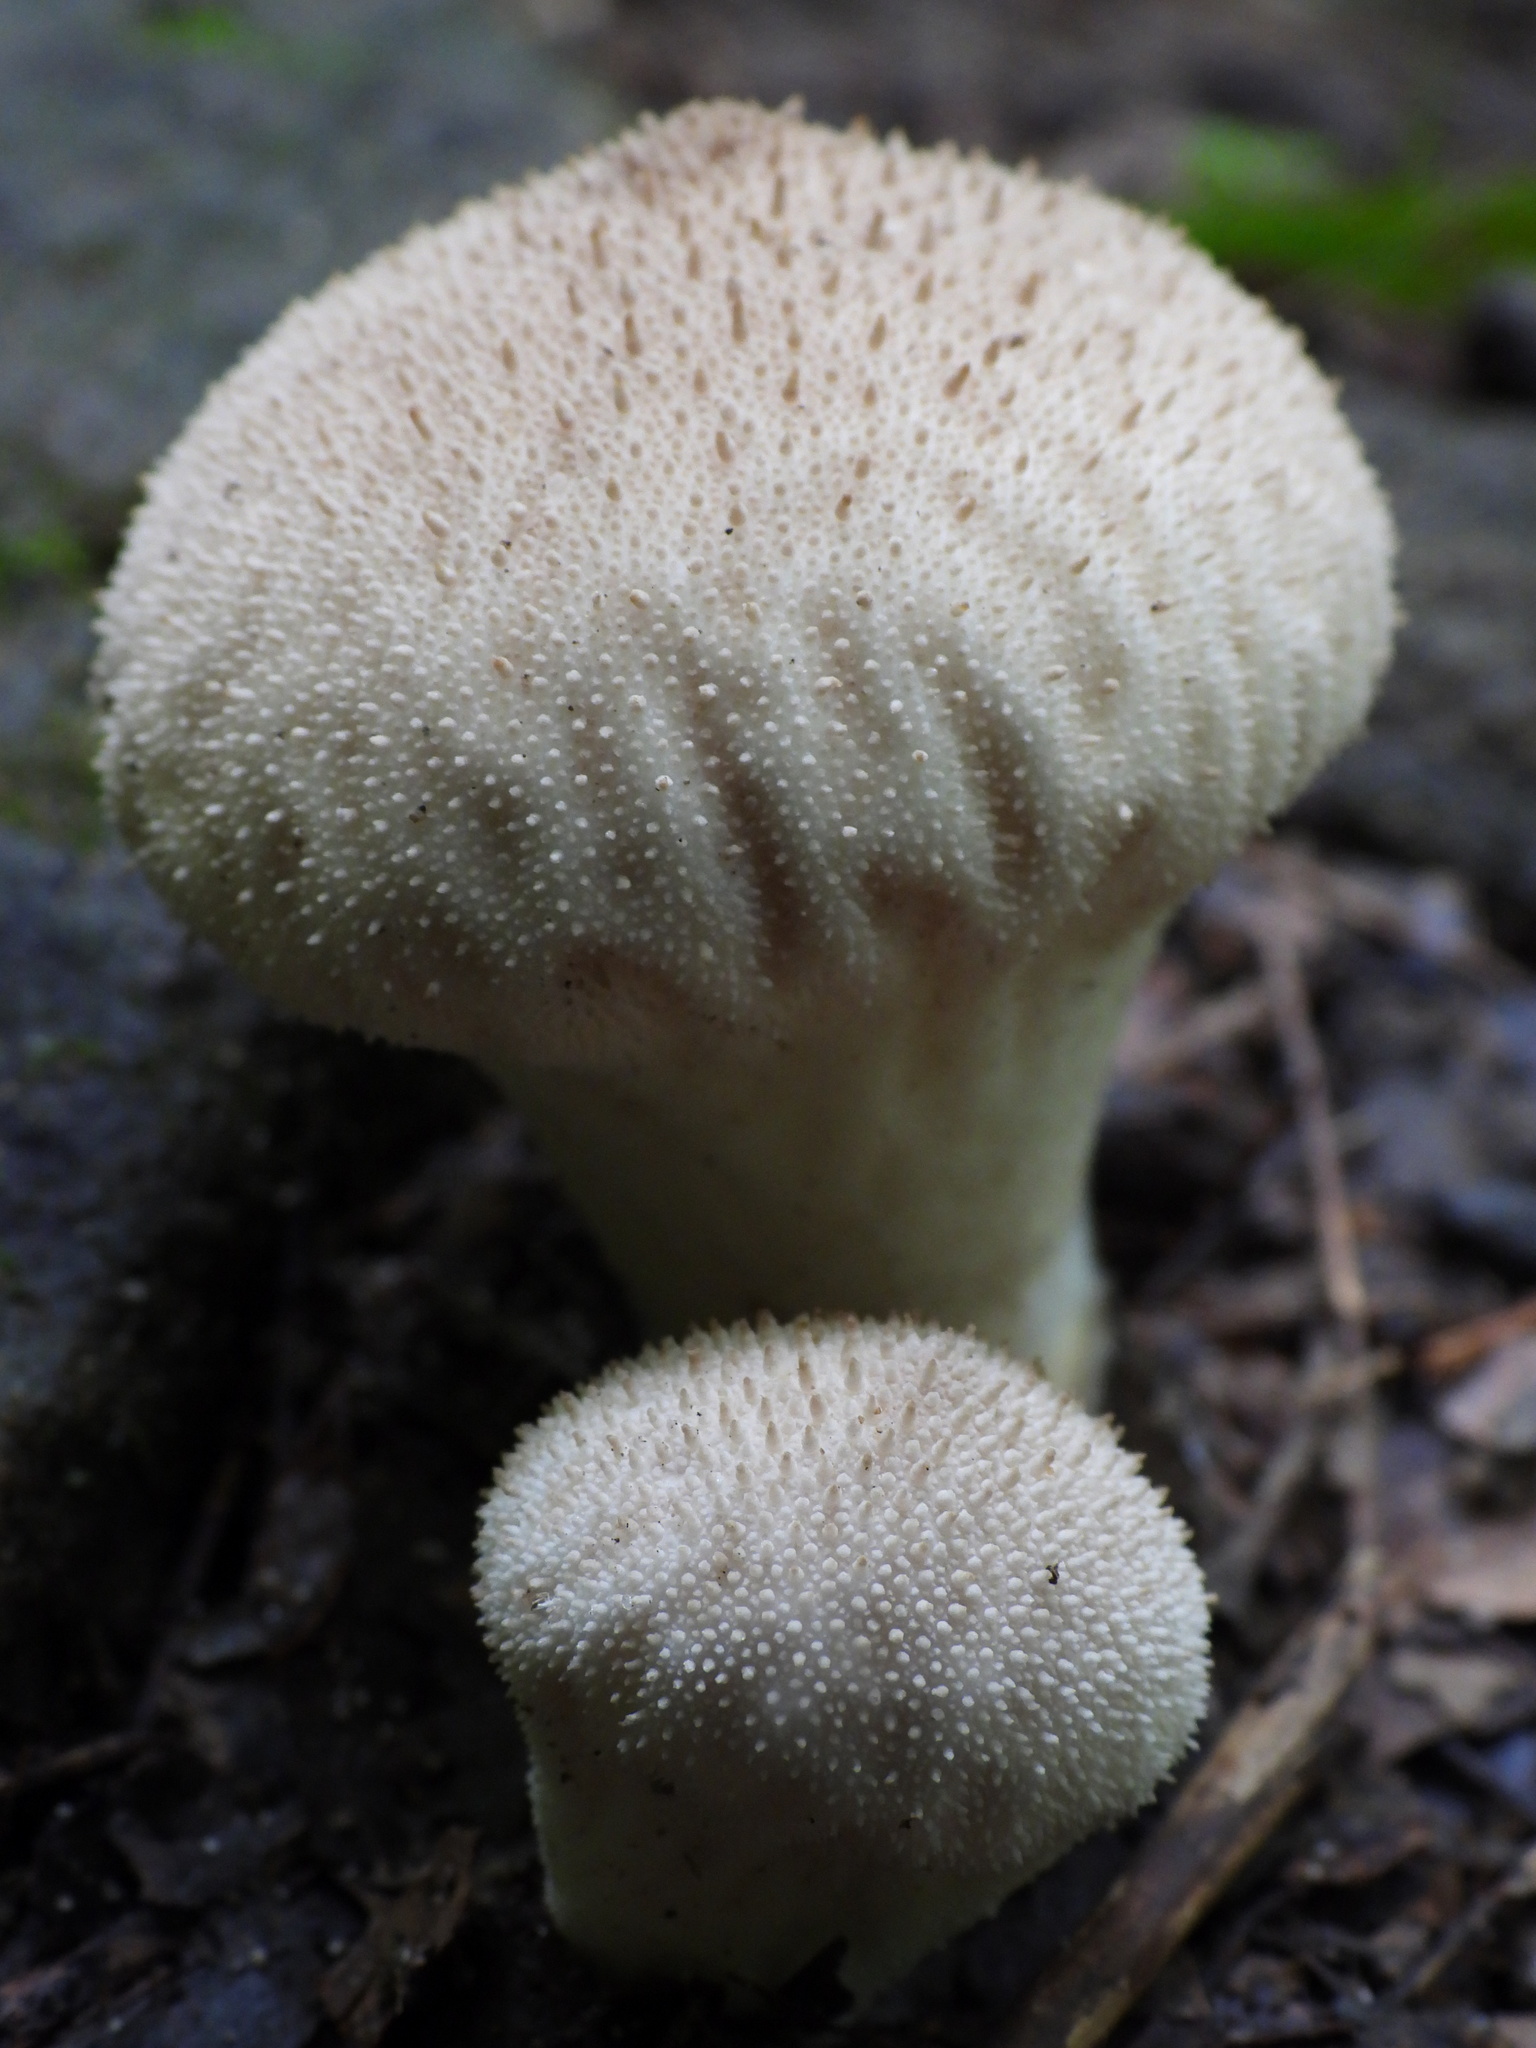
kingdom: Fungi
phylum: Basidiomycota
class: Agaricomycetes
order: Agaricales
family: Lycoperdaceae
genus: Lycoperdon
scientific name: Lycoperdon perlatum
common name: Common puffball
